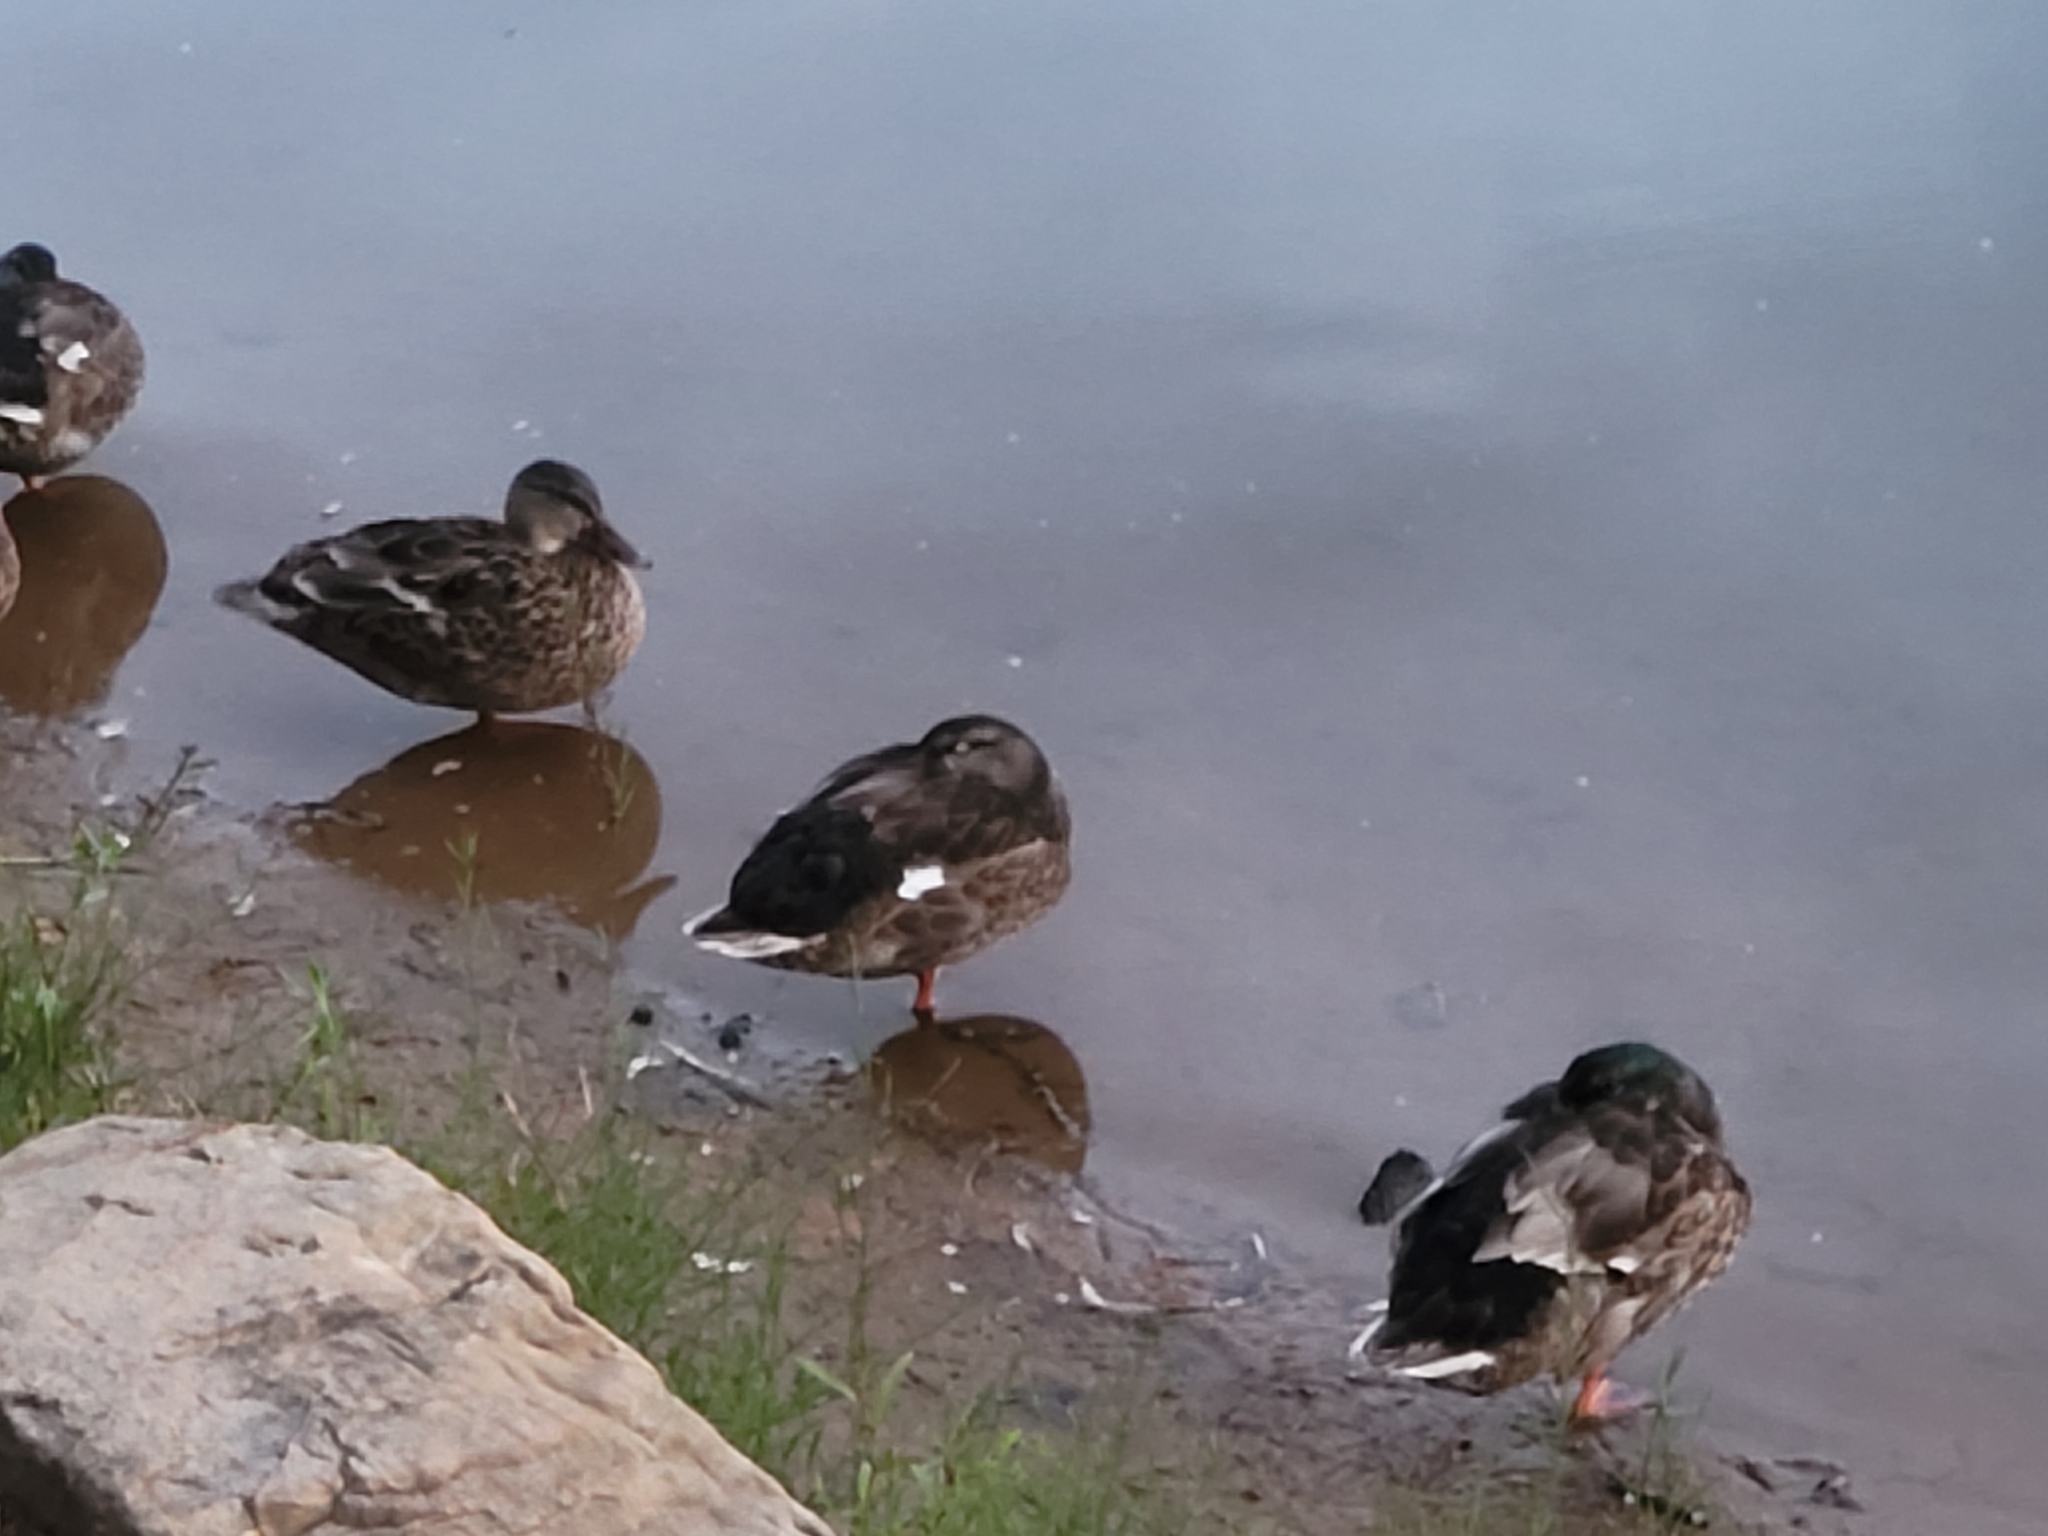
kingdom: Animalia
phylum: Chordata
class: Aves
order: Anseriformes
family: Anatidae
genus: Anas
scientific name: Anas platyrhynchos
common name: Mallard
